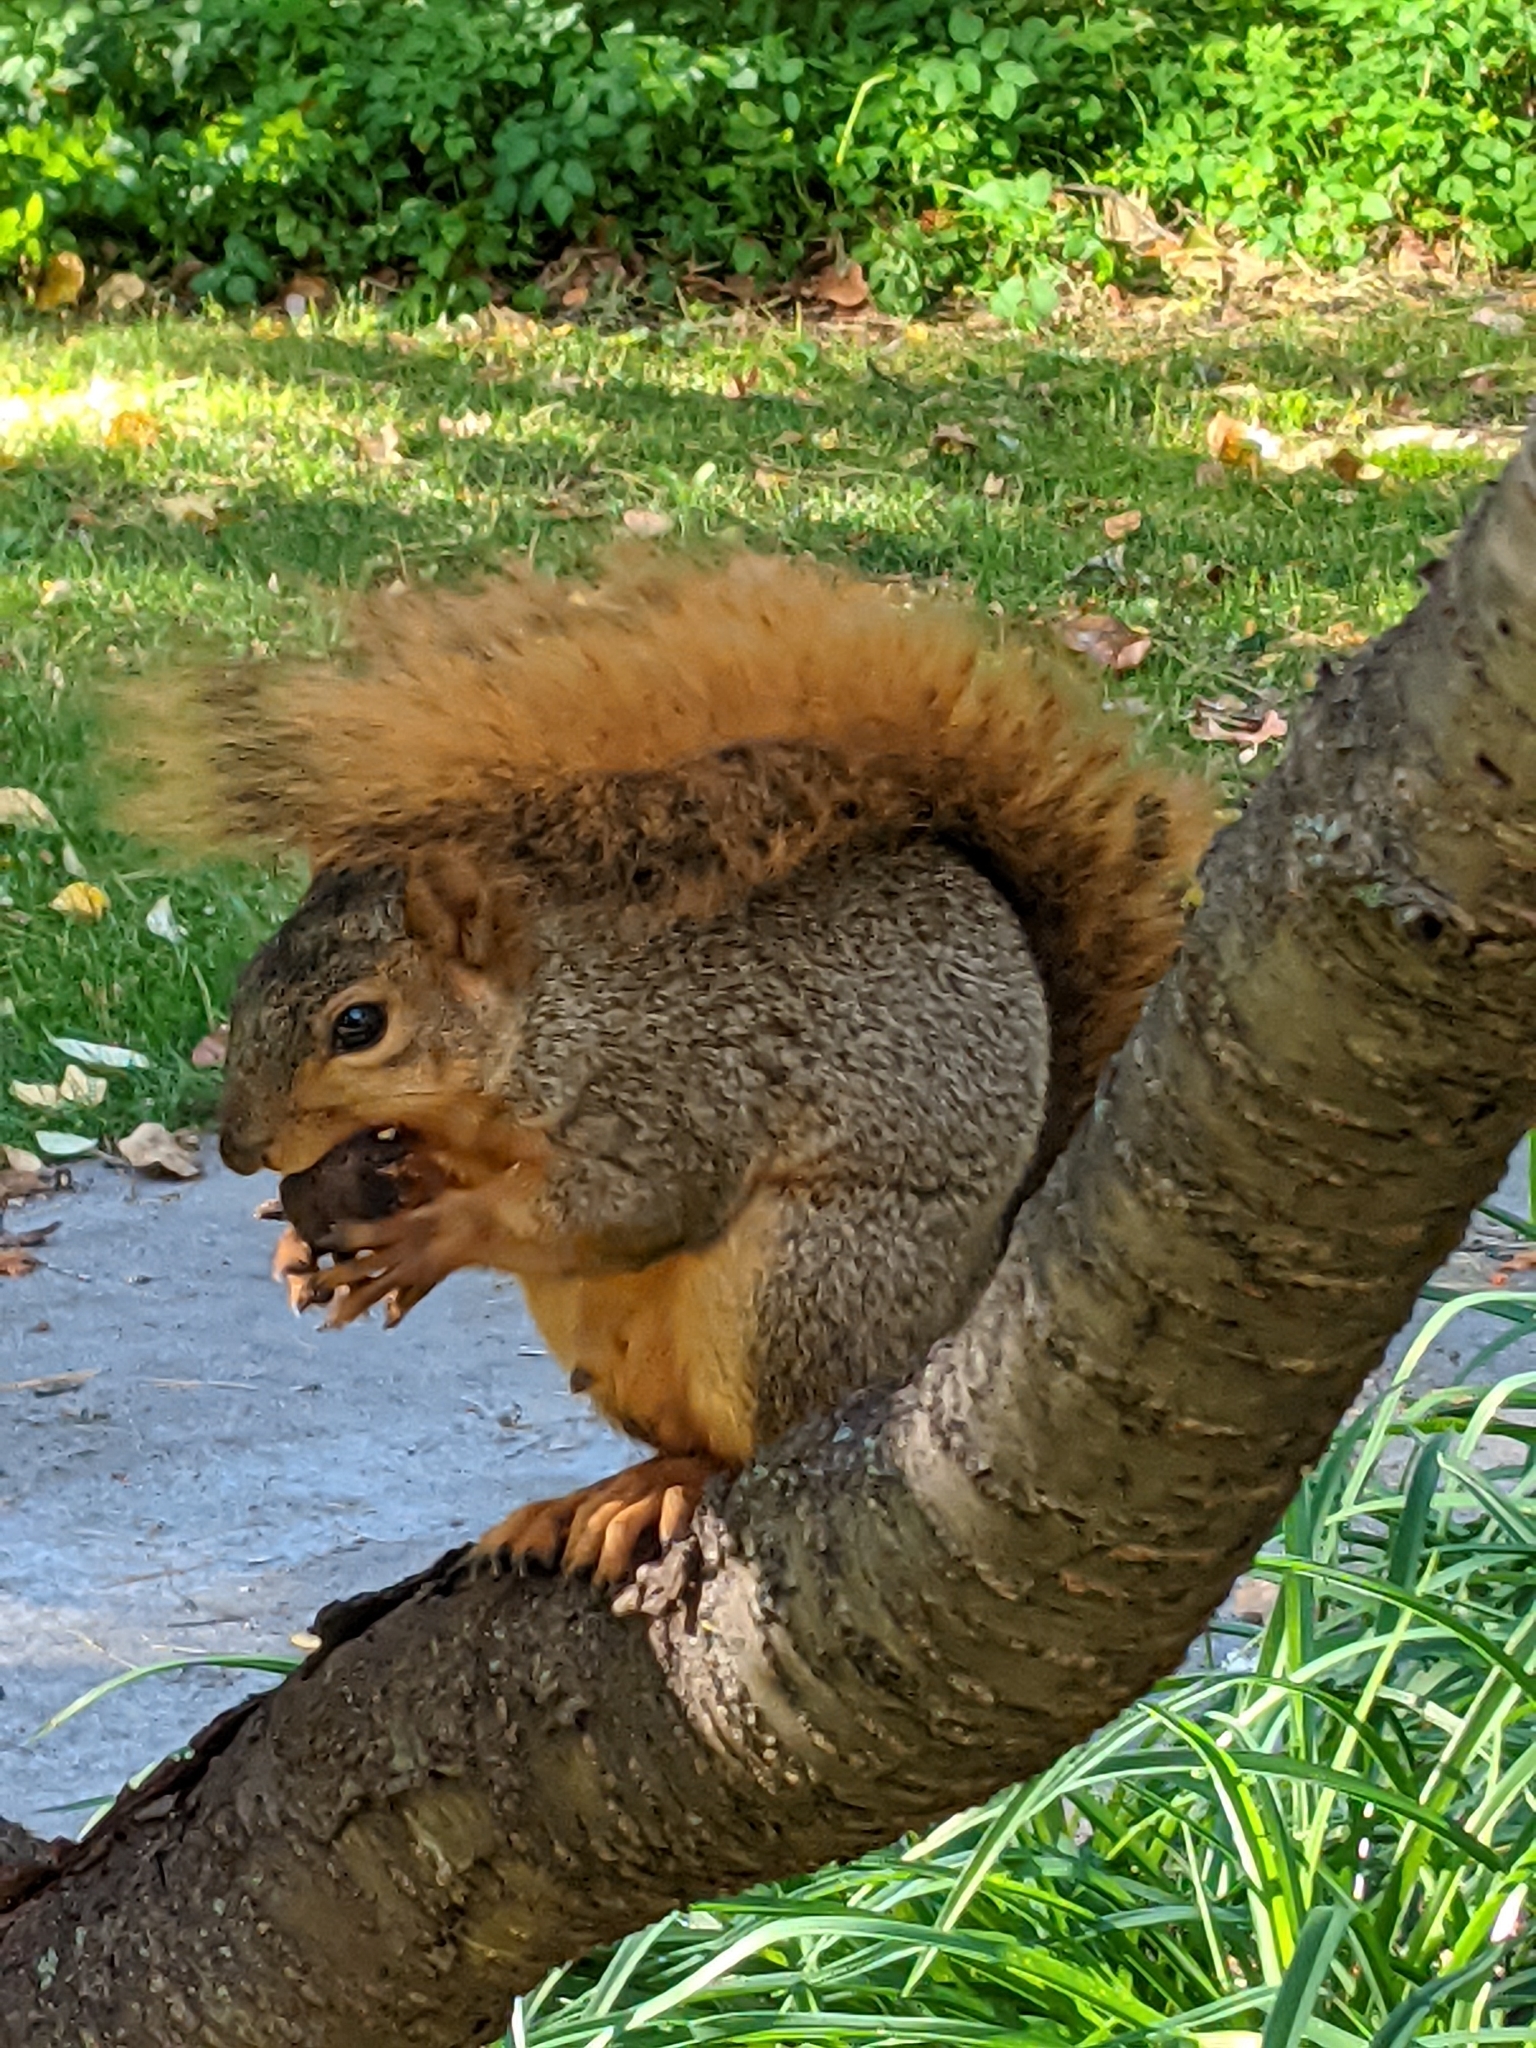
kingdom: Animalia
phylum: Chordata
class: Mammalia
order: Rodentia
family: Sciuridae
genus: Sciurus
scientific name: Sciurus niger
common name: Fox squirrel
